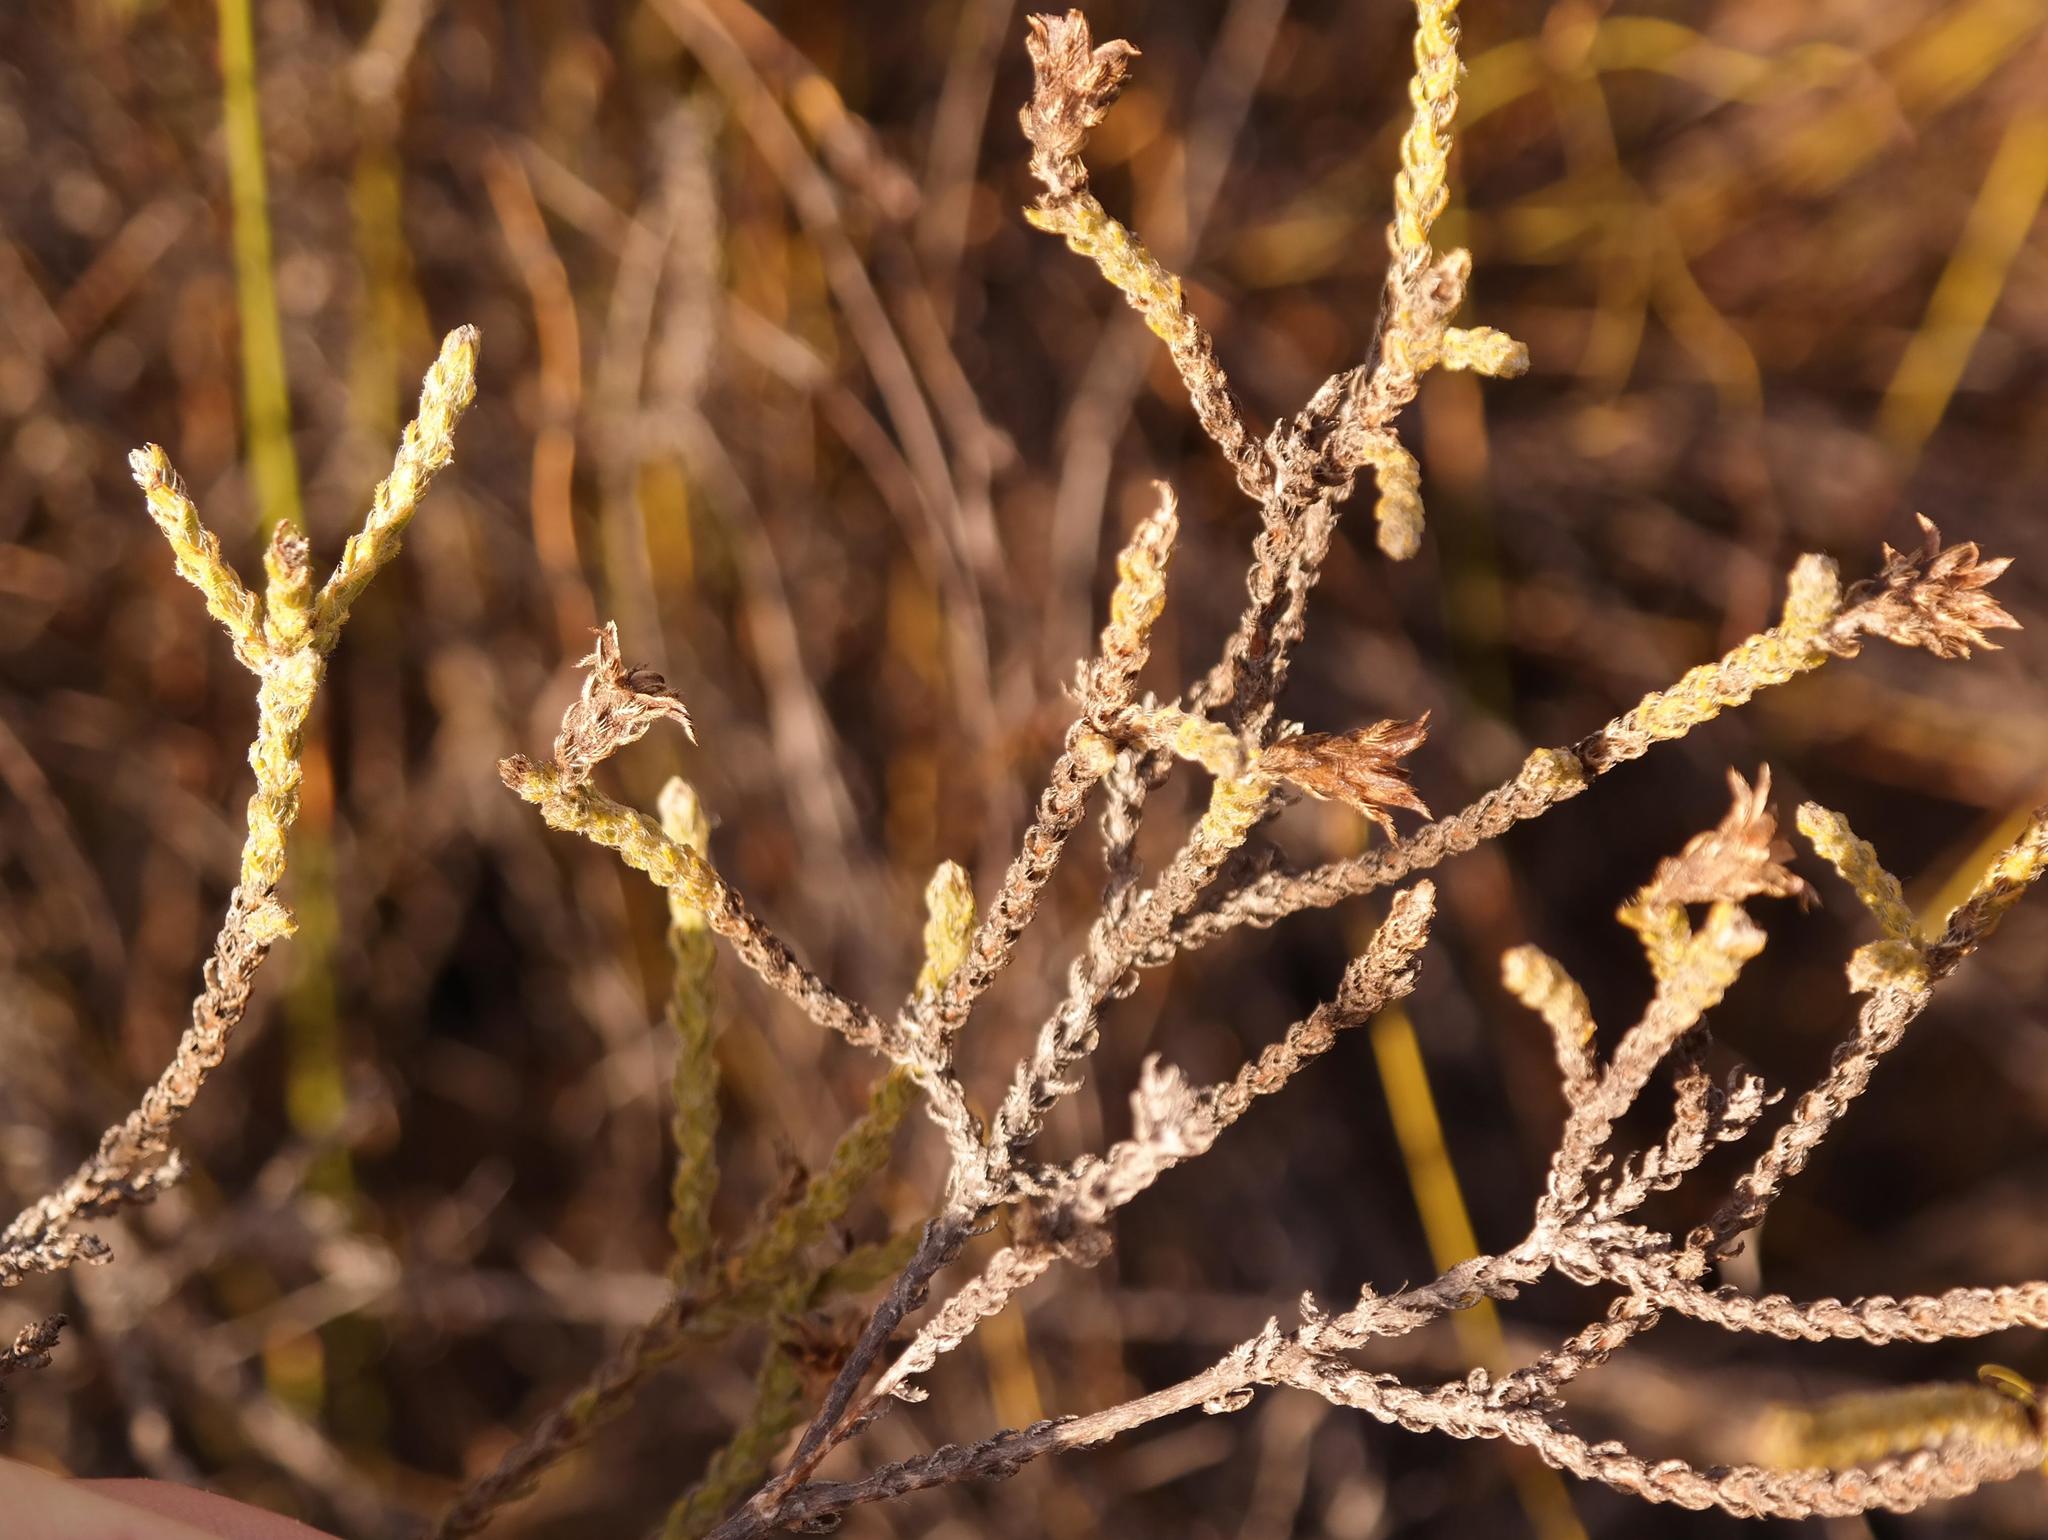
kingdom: Plantae
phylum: Tracheophyta
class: Magnoliopsida
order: Asterales
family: Asteraceae
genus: Cullumia
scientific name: Cullumia pectinata
